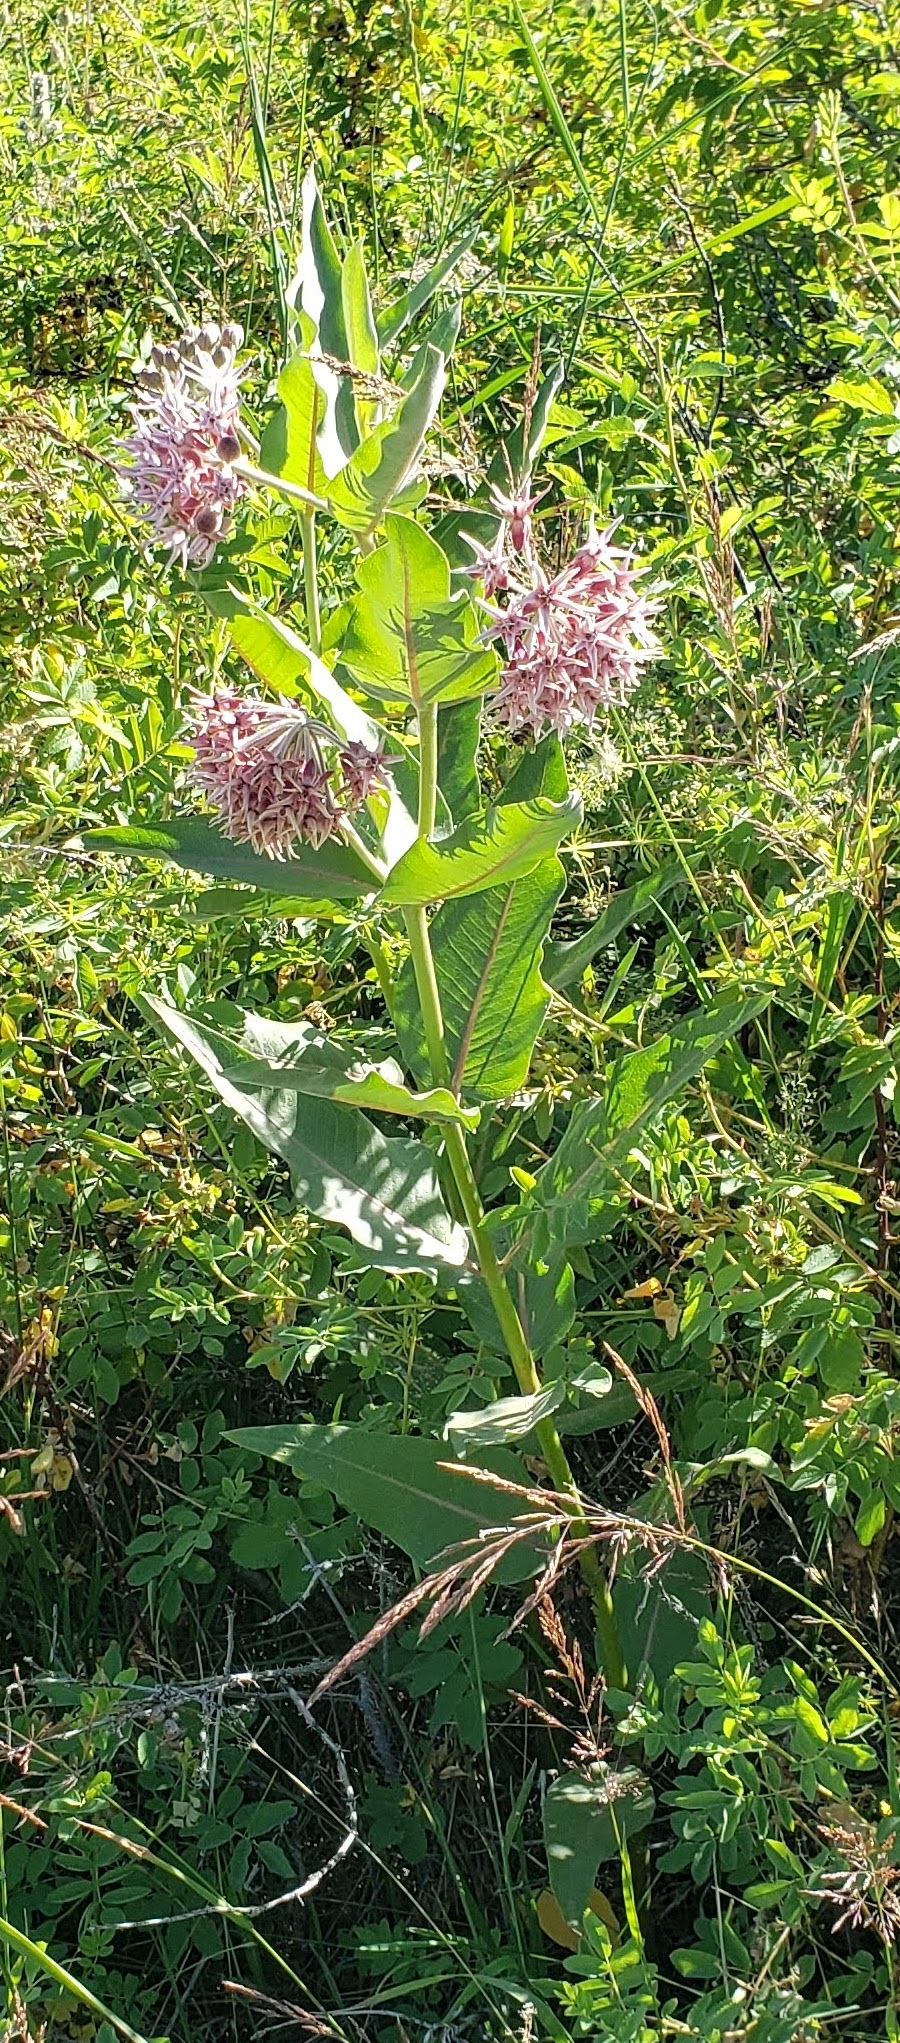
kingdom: Plantae
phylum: Tracheophyta
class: Magnoliopsida
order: Gentianales
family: Apocynaceae
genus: Asclepias
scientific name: Asclepias speciosa
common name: Showy milkweed
